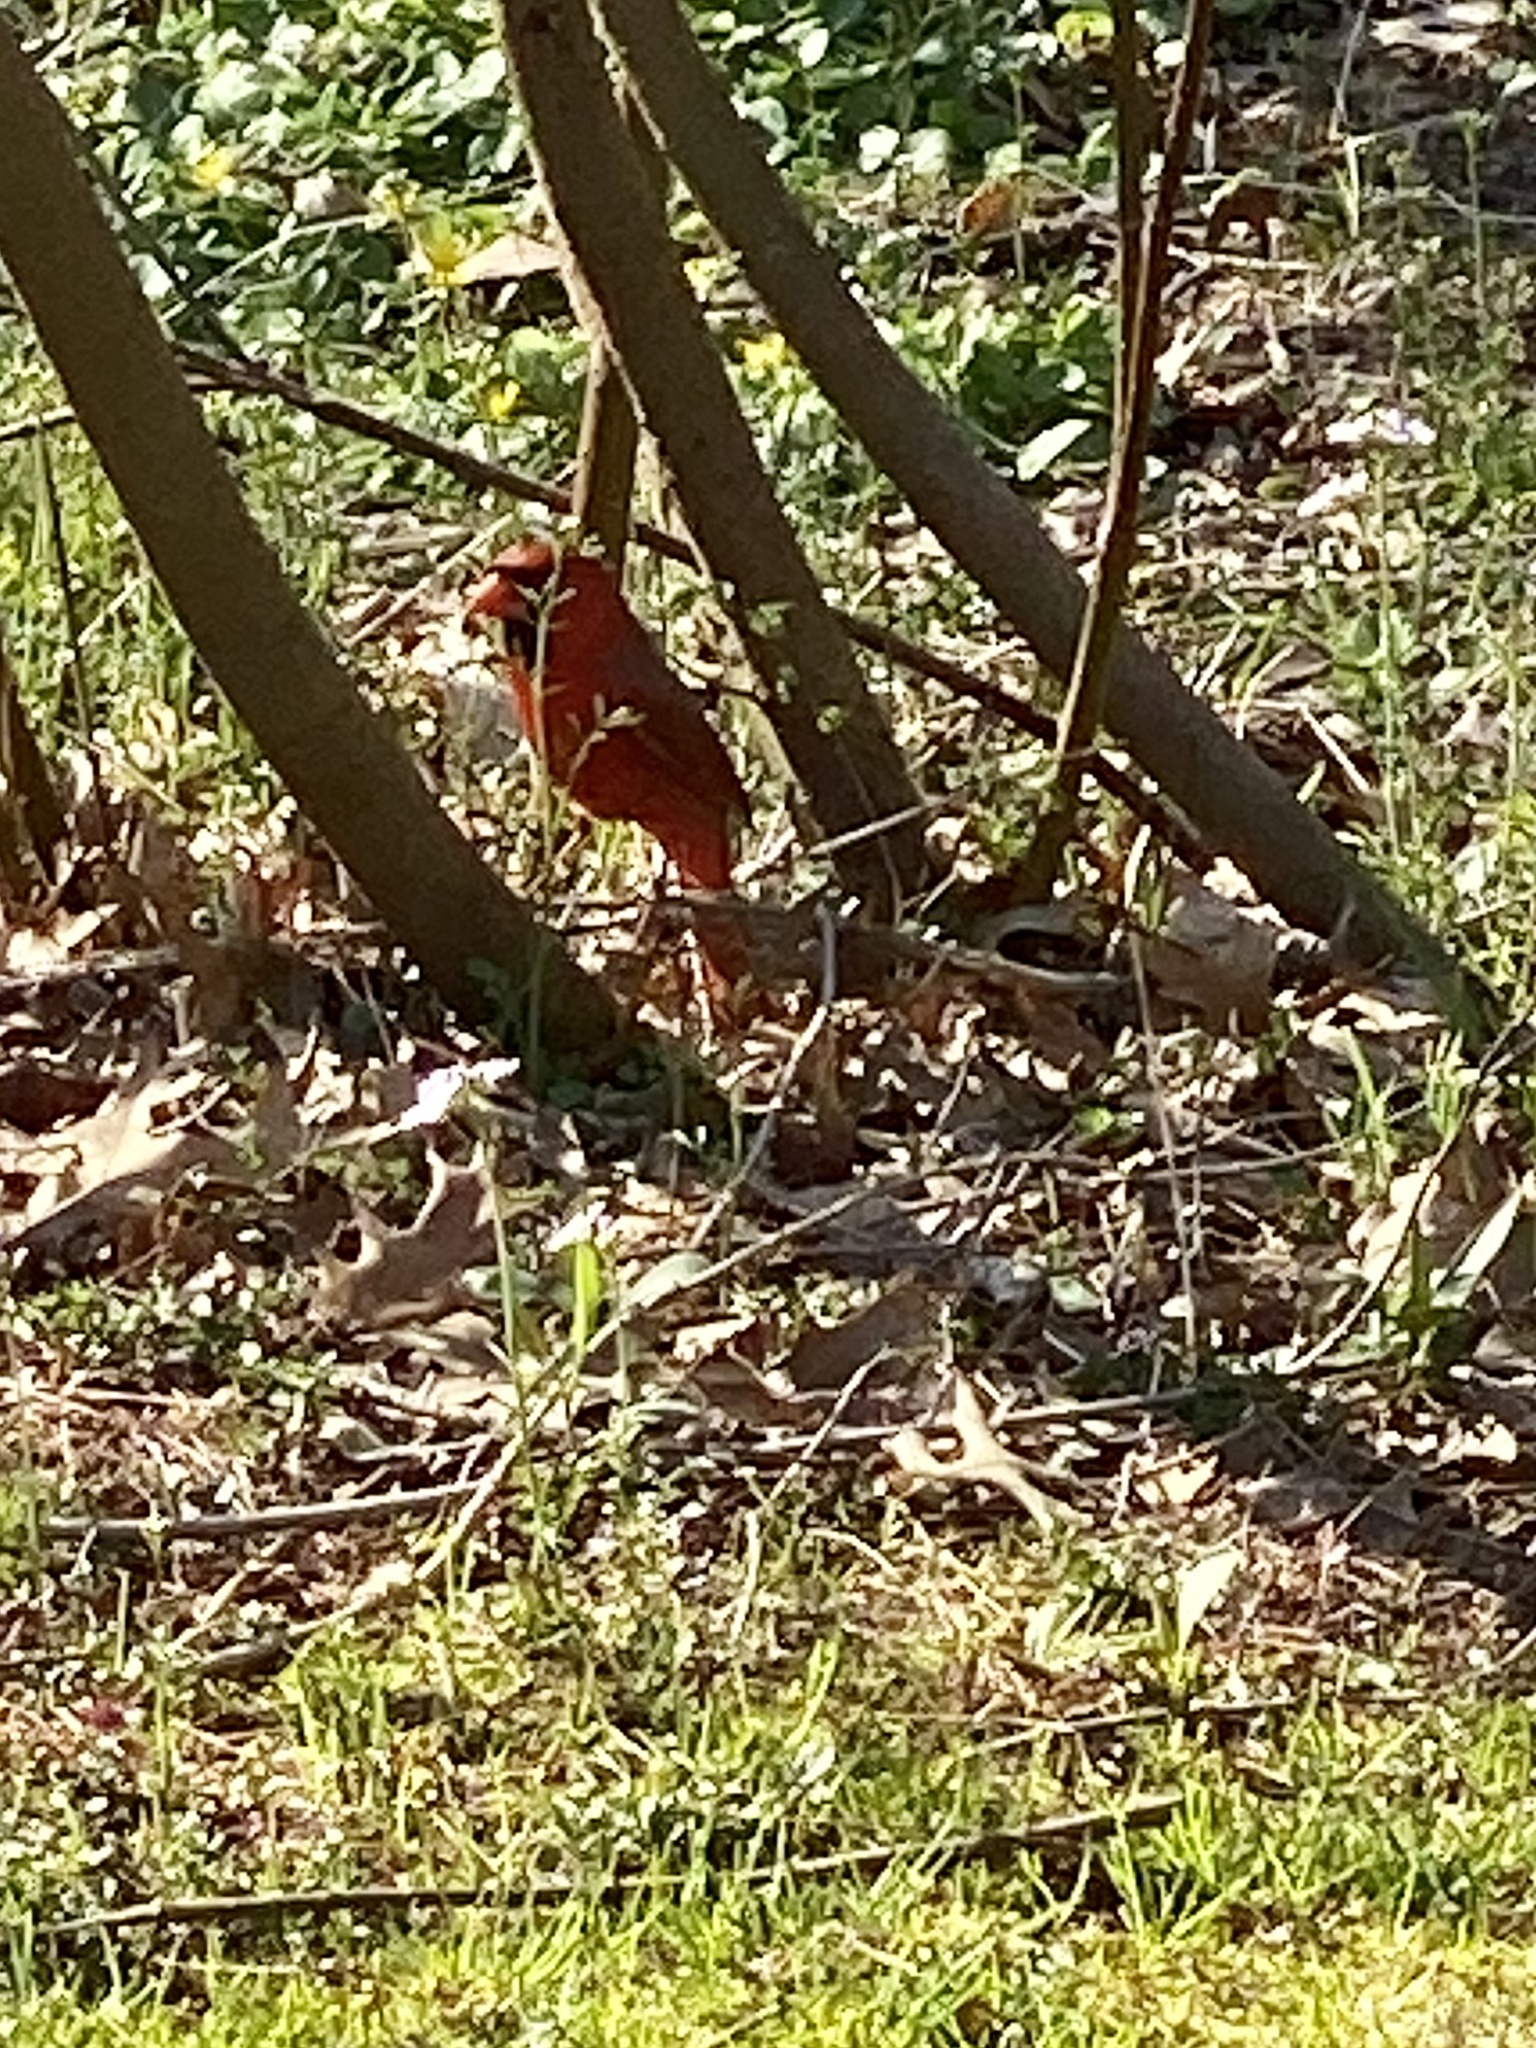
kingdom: Animalia
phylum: Chordata
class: Aves
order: Passeriformes
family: Cardinalidae
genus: Cardinalis
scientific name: Cardinalis cardinalis
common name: Northern cardinal
